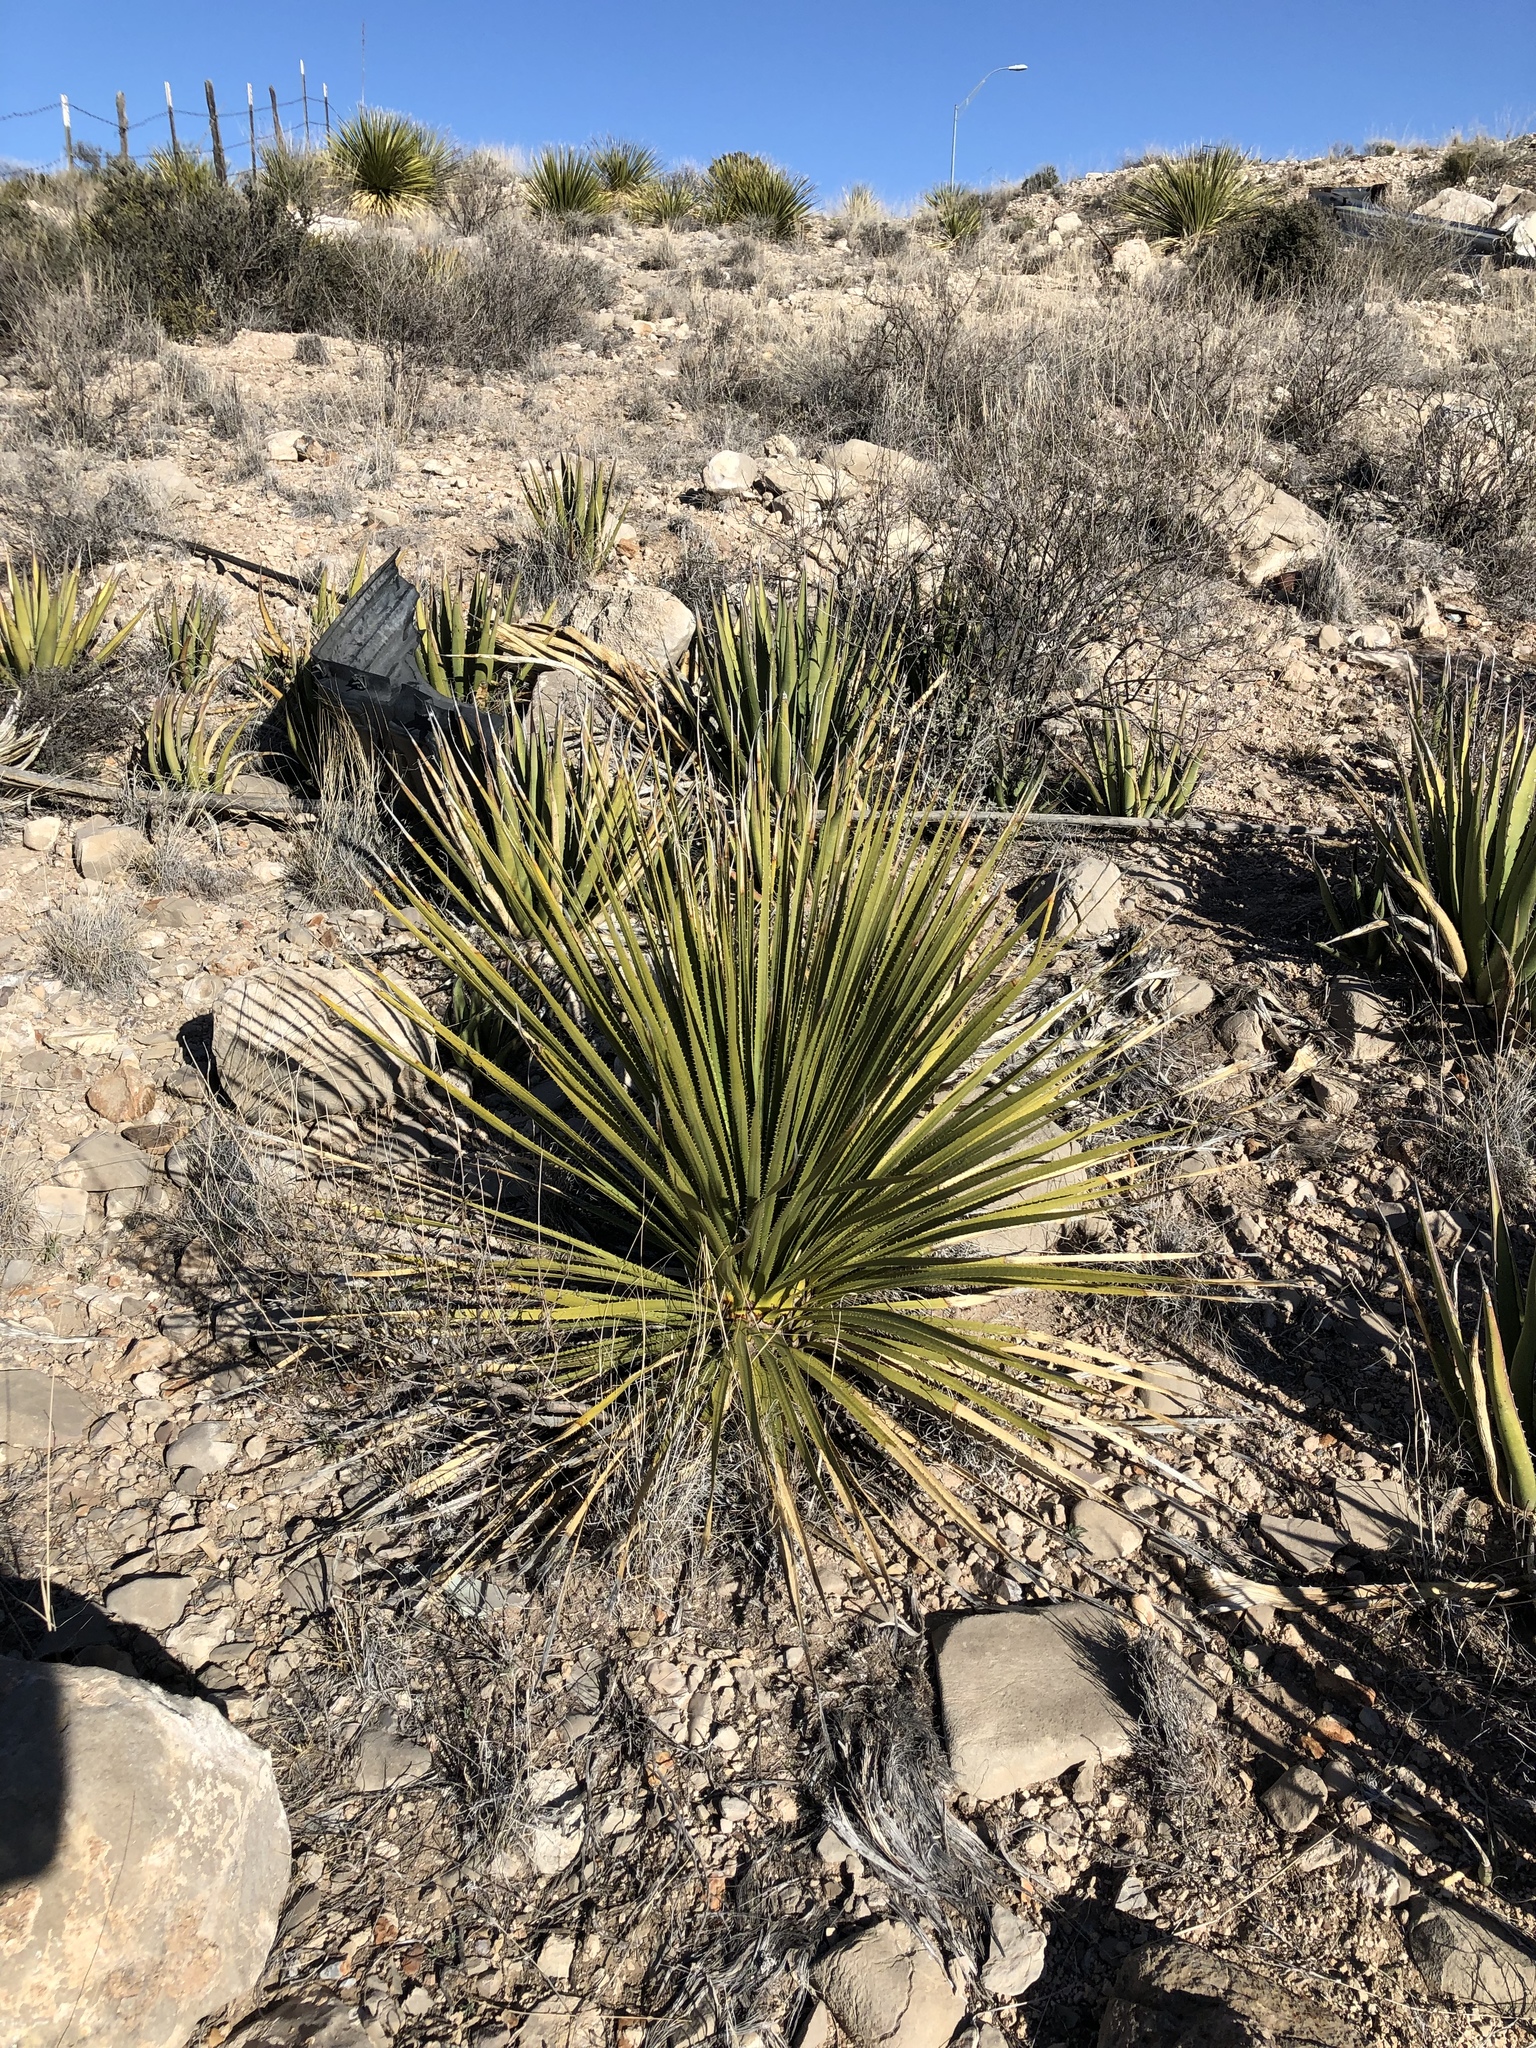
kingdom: Plantae
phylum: Tracheophyta
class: Liliopsida
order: Asparagales
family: Asparagaceae
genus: Dasylirion
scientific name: Dasylirion leiophyllum
